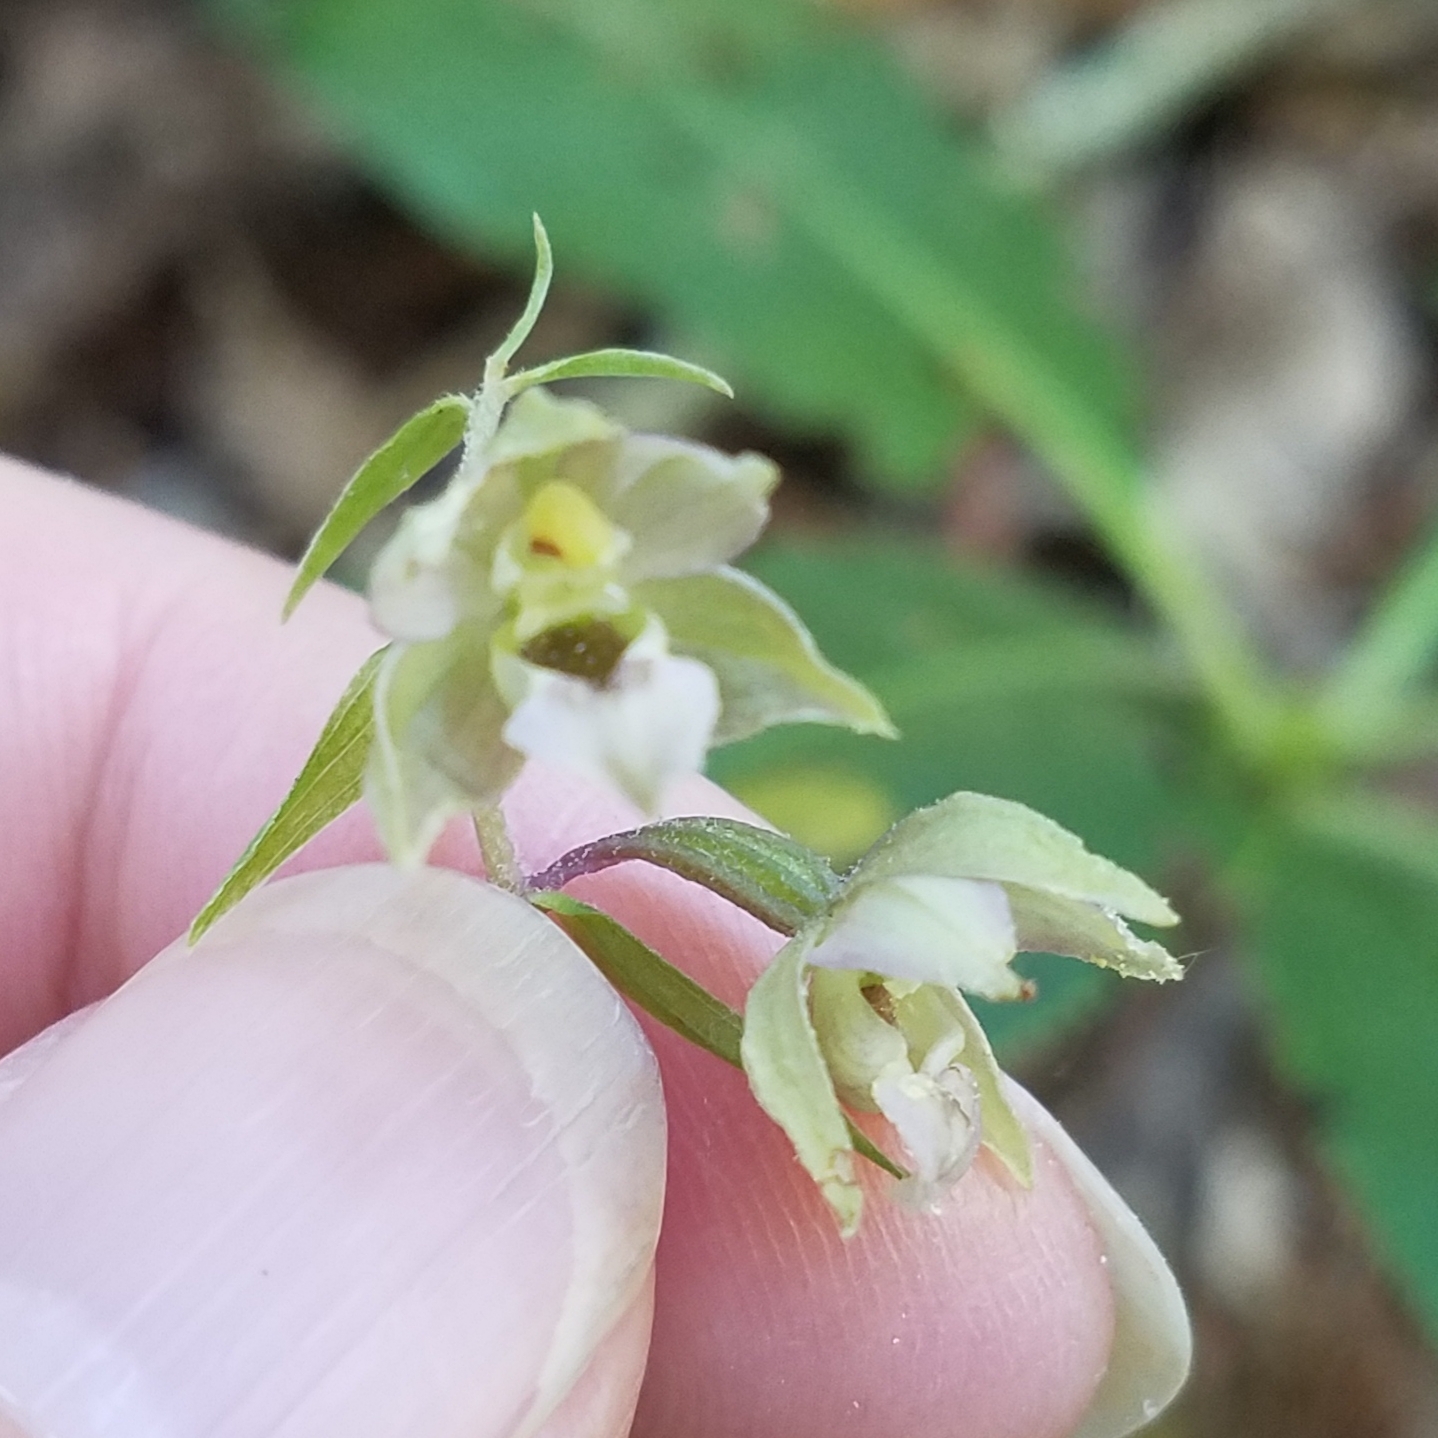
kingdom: Plantae
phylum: Tracheophyta
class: Liliopsida
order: Asparagales
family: Orchidaceae
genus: Epipactis
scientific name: Epipactis helleborine
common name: Broad-leaved helleborine
